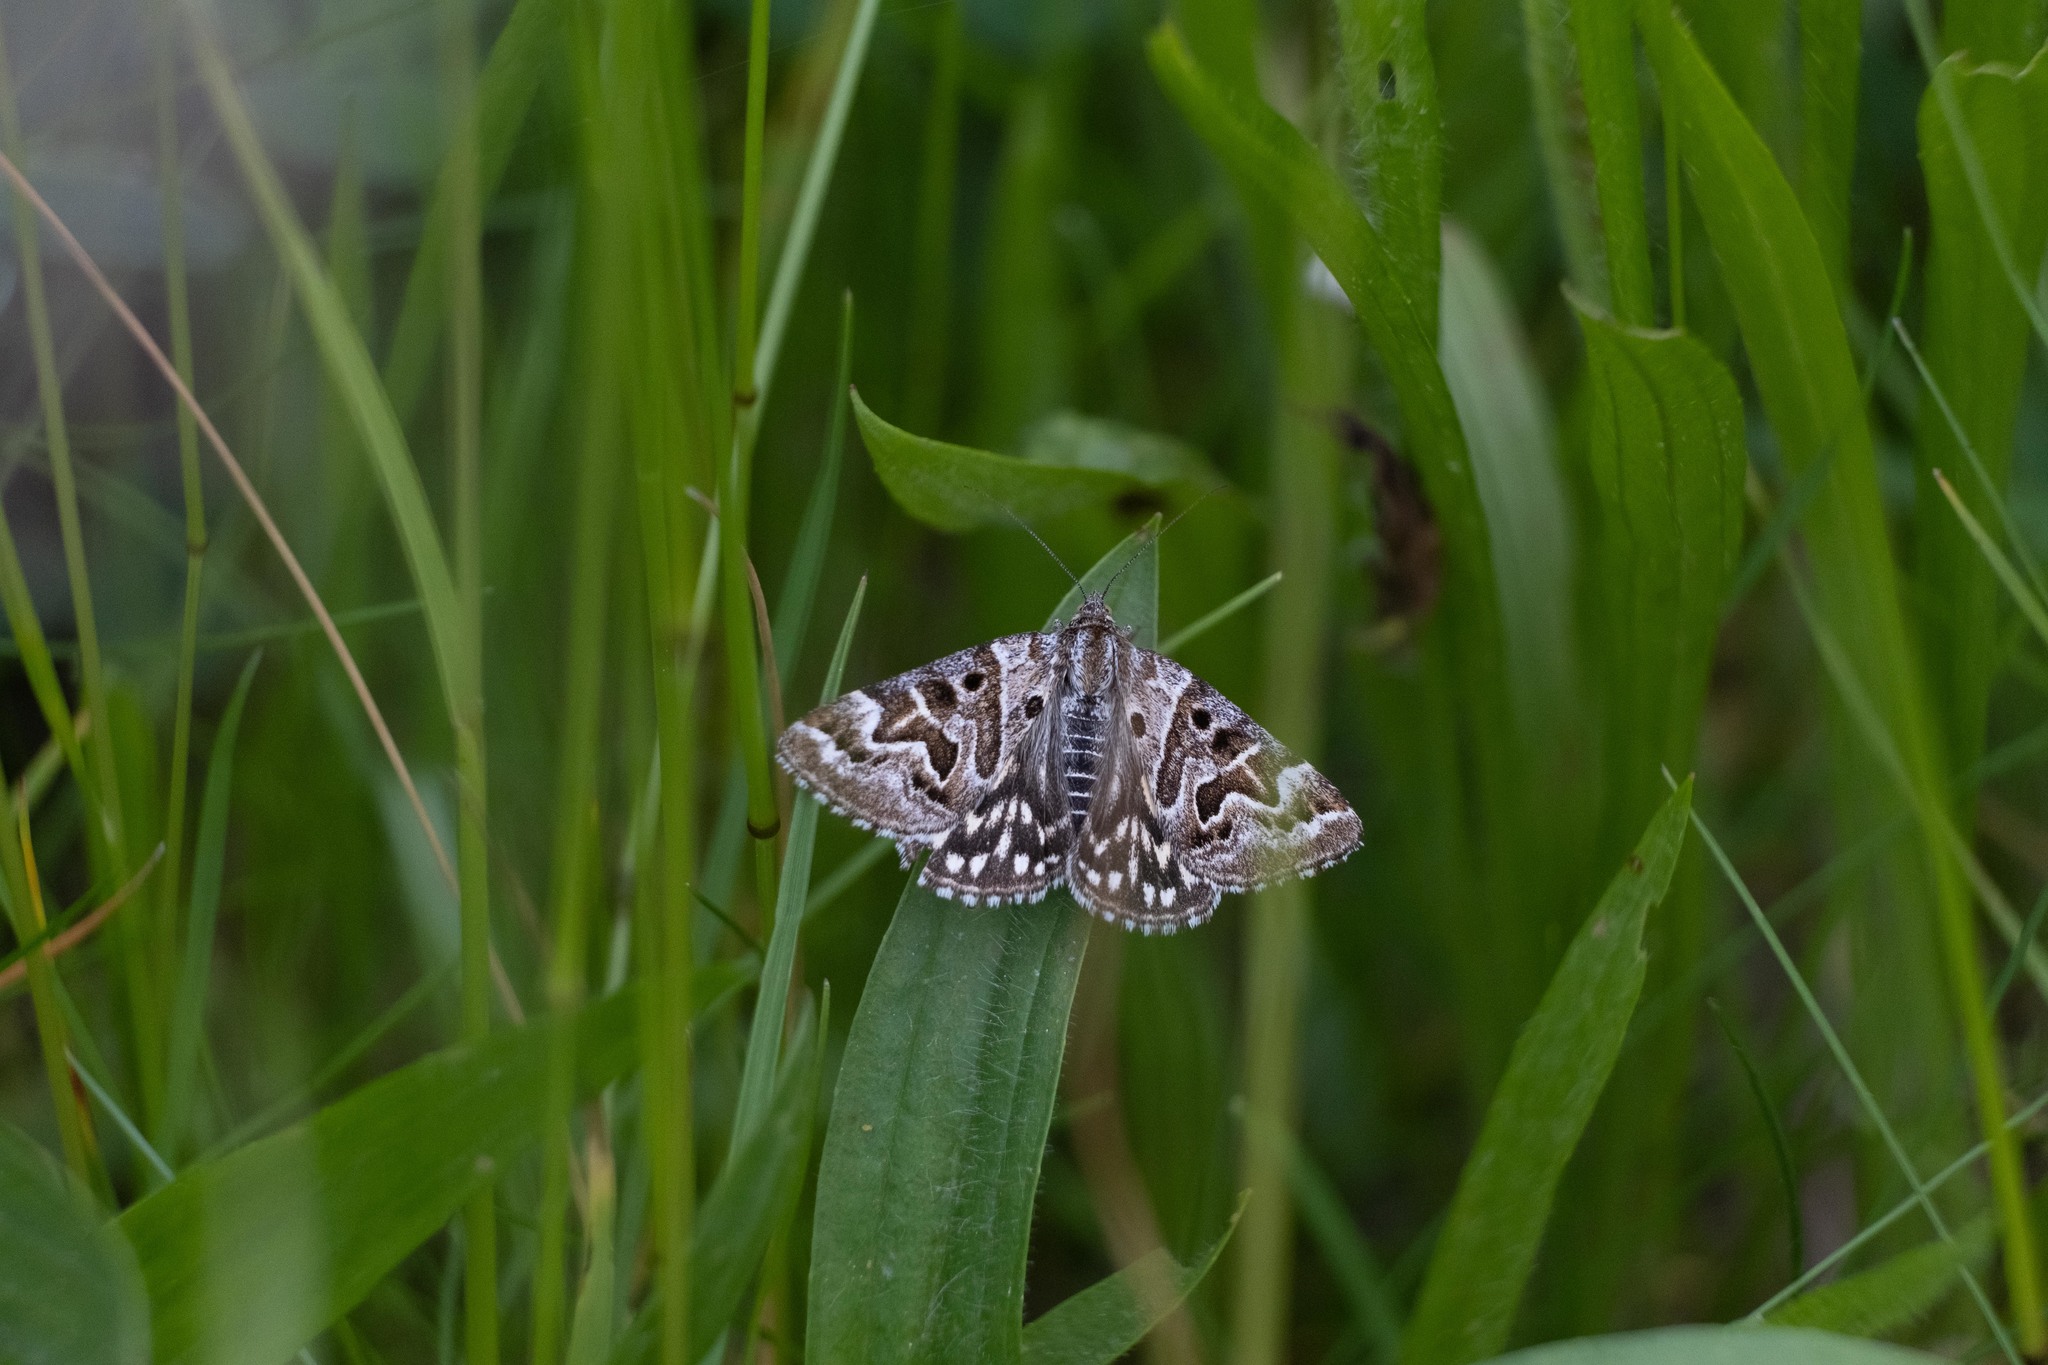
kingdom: Animalia
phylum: Arthropoda
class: Insecta
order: Lepidoptera
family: Erebidae
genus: Callistege
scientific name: Callistege mi
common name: Mother shipton
